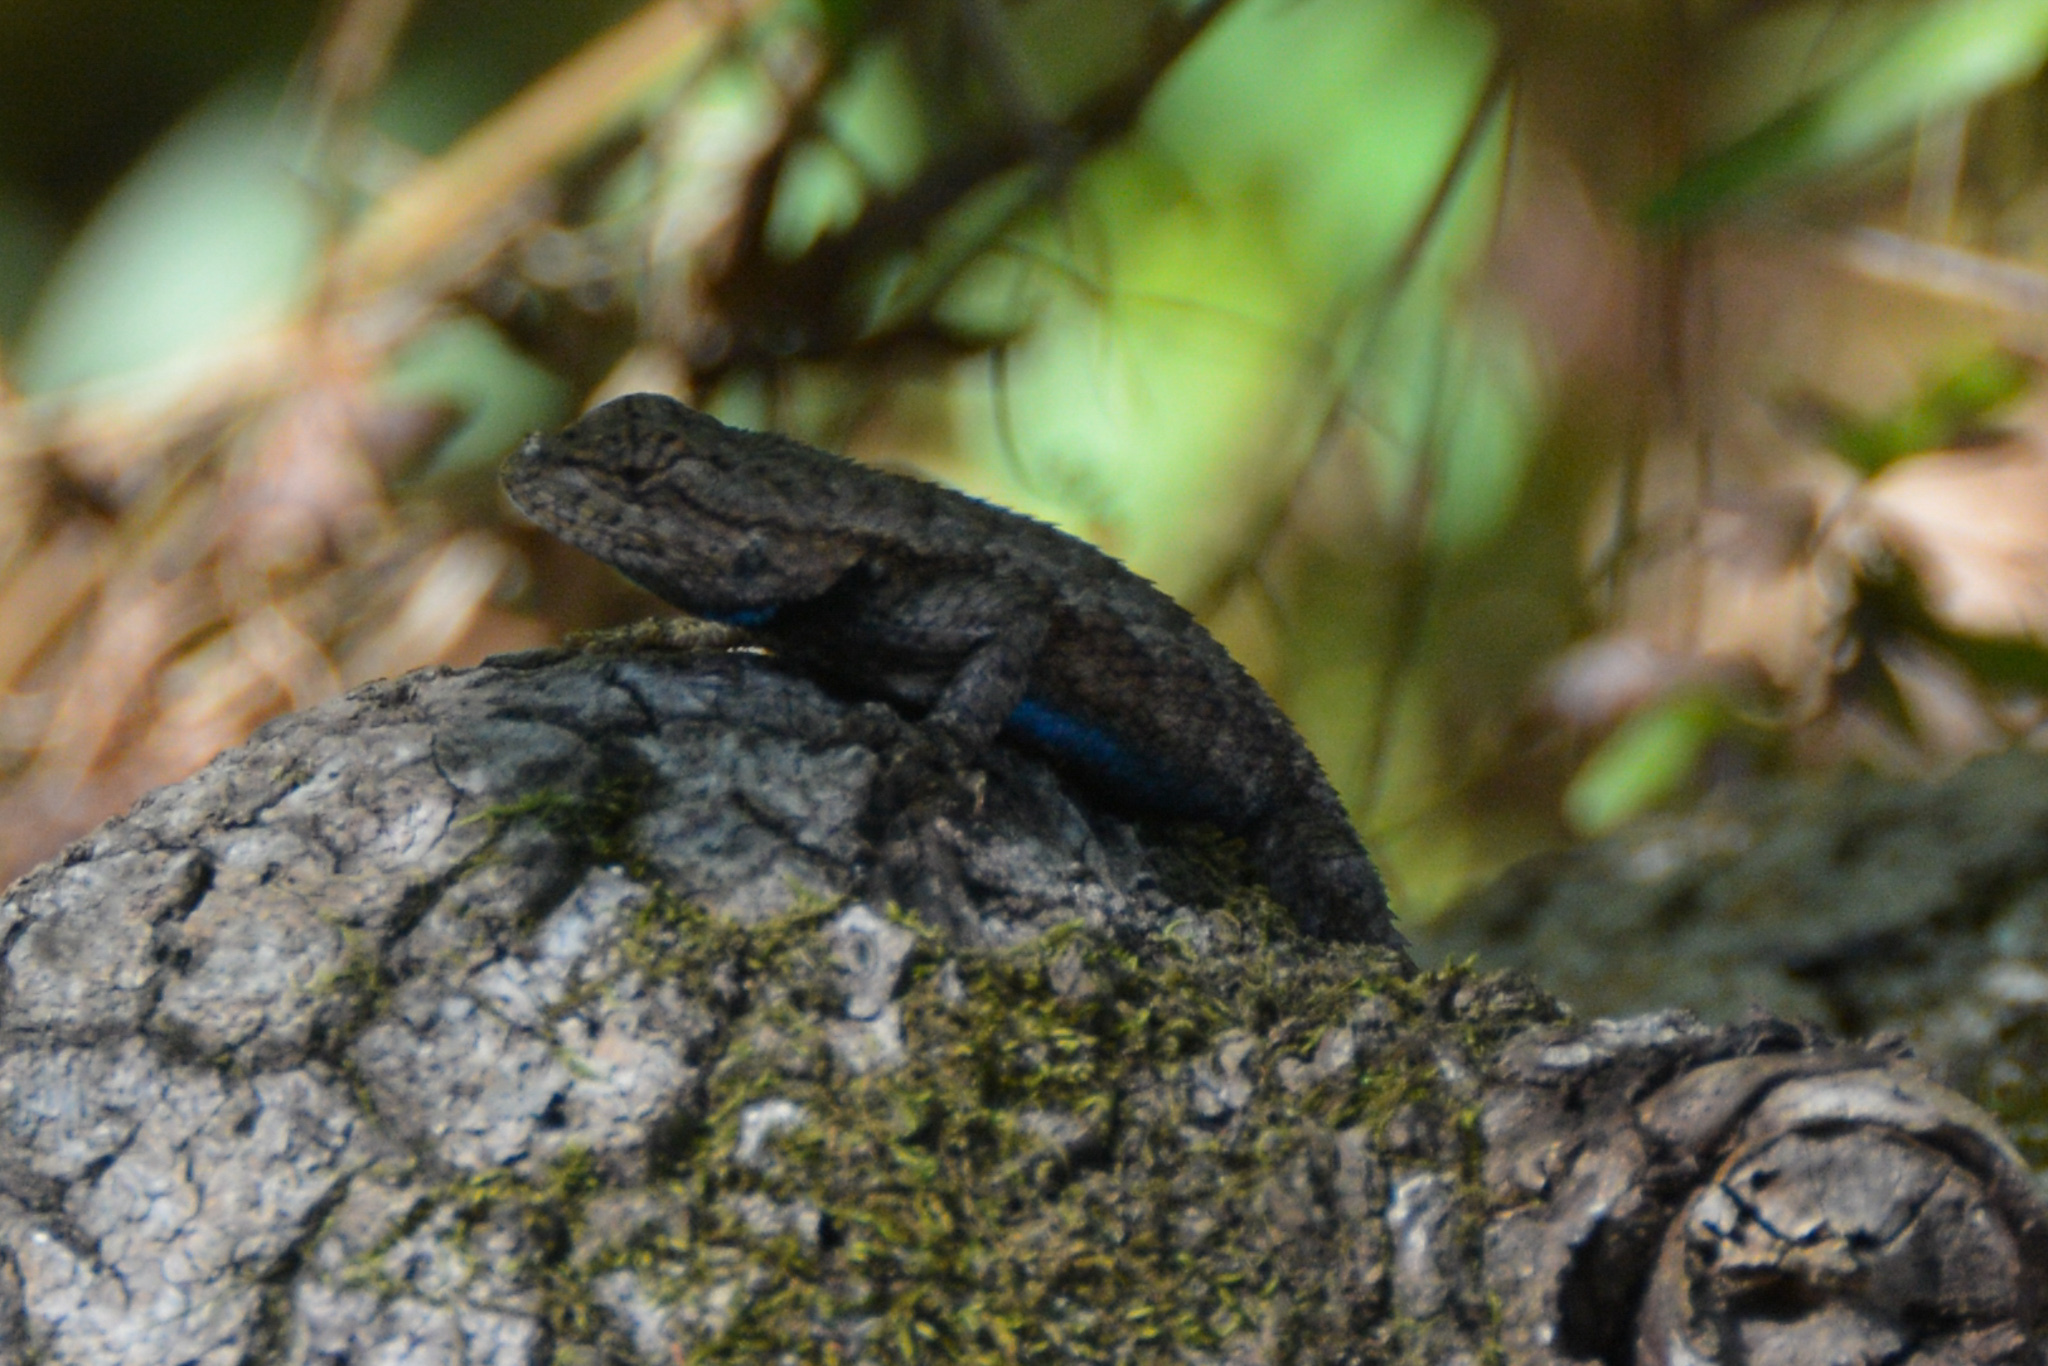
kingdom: Animalia
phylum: Chordata
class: Squamata
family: Phrynosomatidae
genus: Sceloporus
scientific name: Sceloporus consobrinus
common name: Southern prairie lizard
